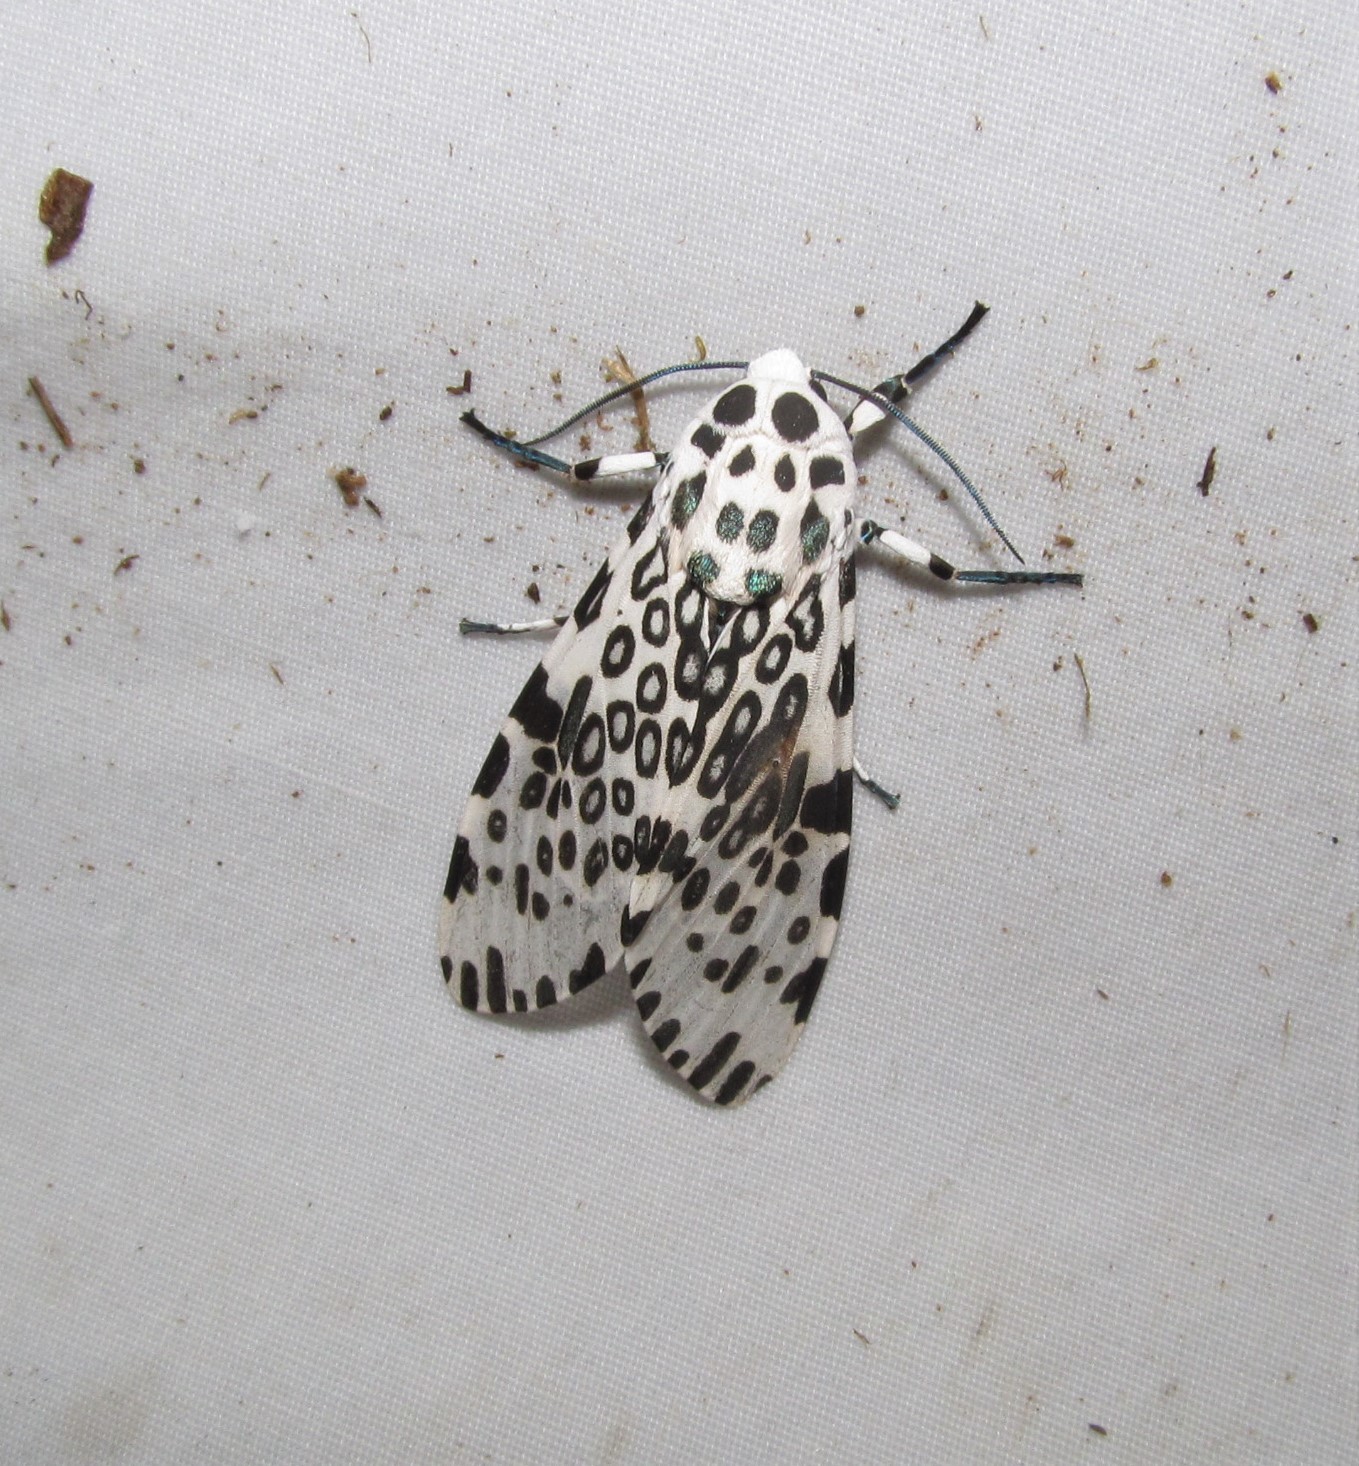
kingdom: Animalia
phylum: Arthropoda
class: Insecta
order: Lepidoptera
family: Erebidae
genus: Hypercompe
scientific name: Hypercompe scribonia
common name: Giant leopard moth
